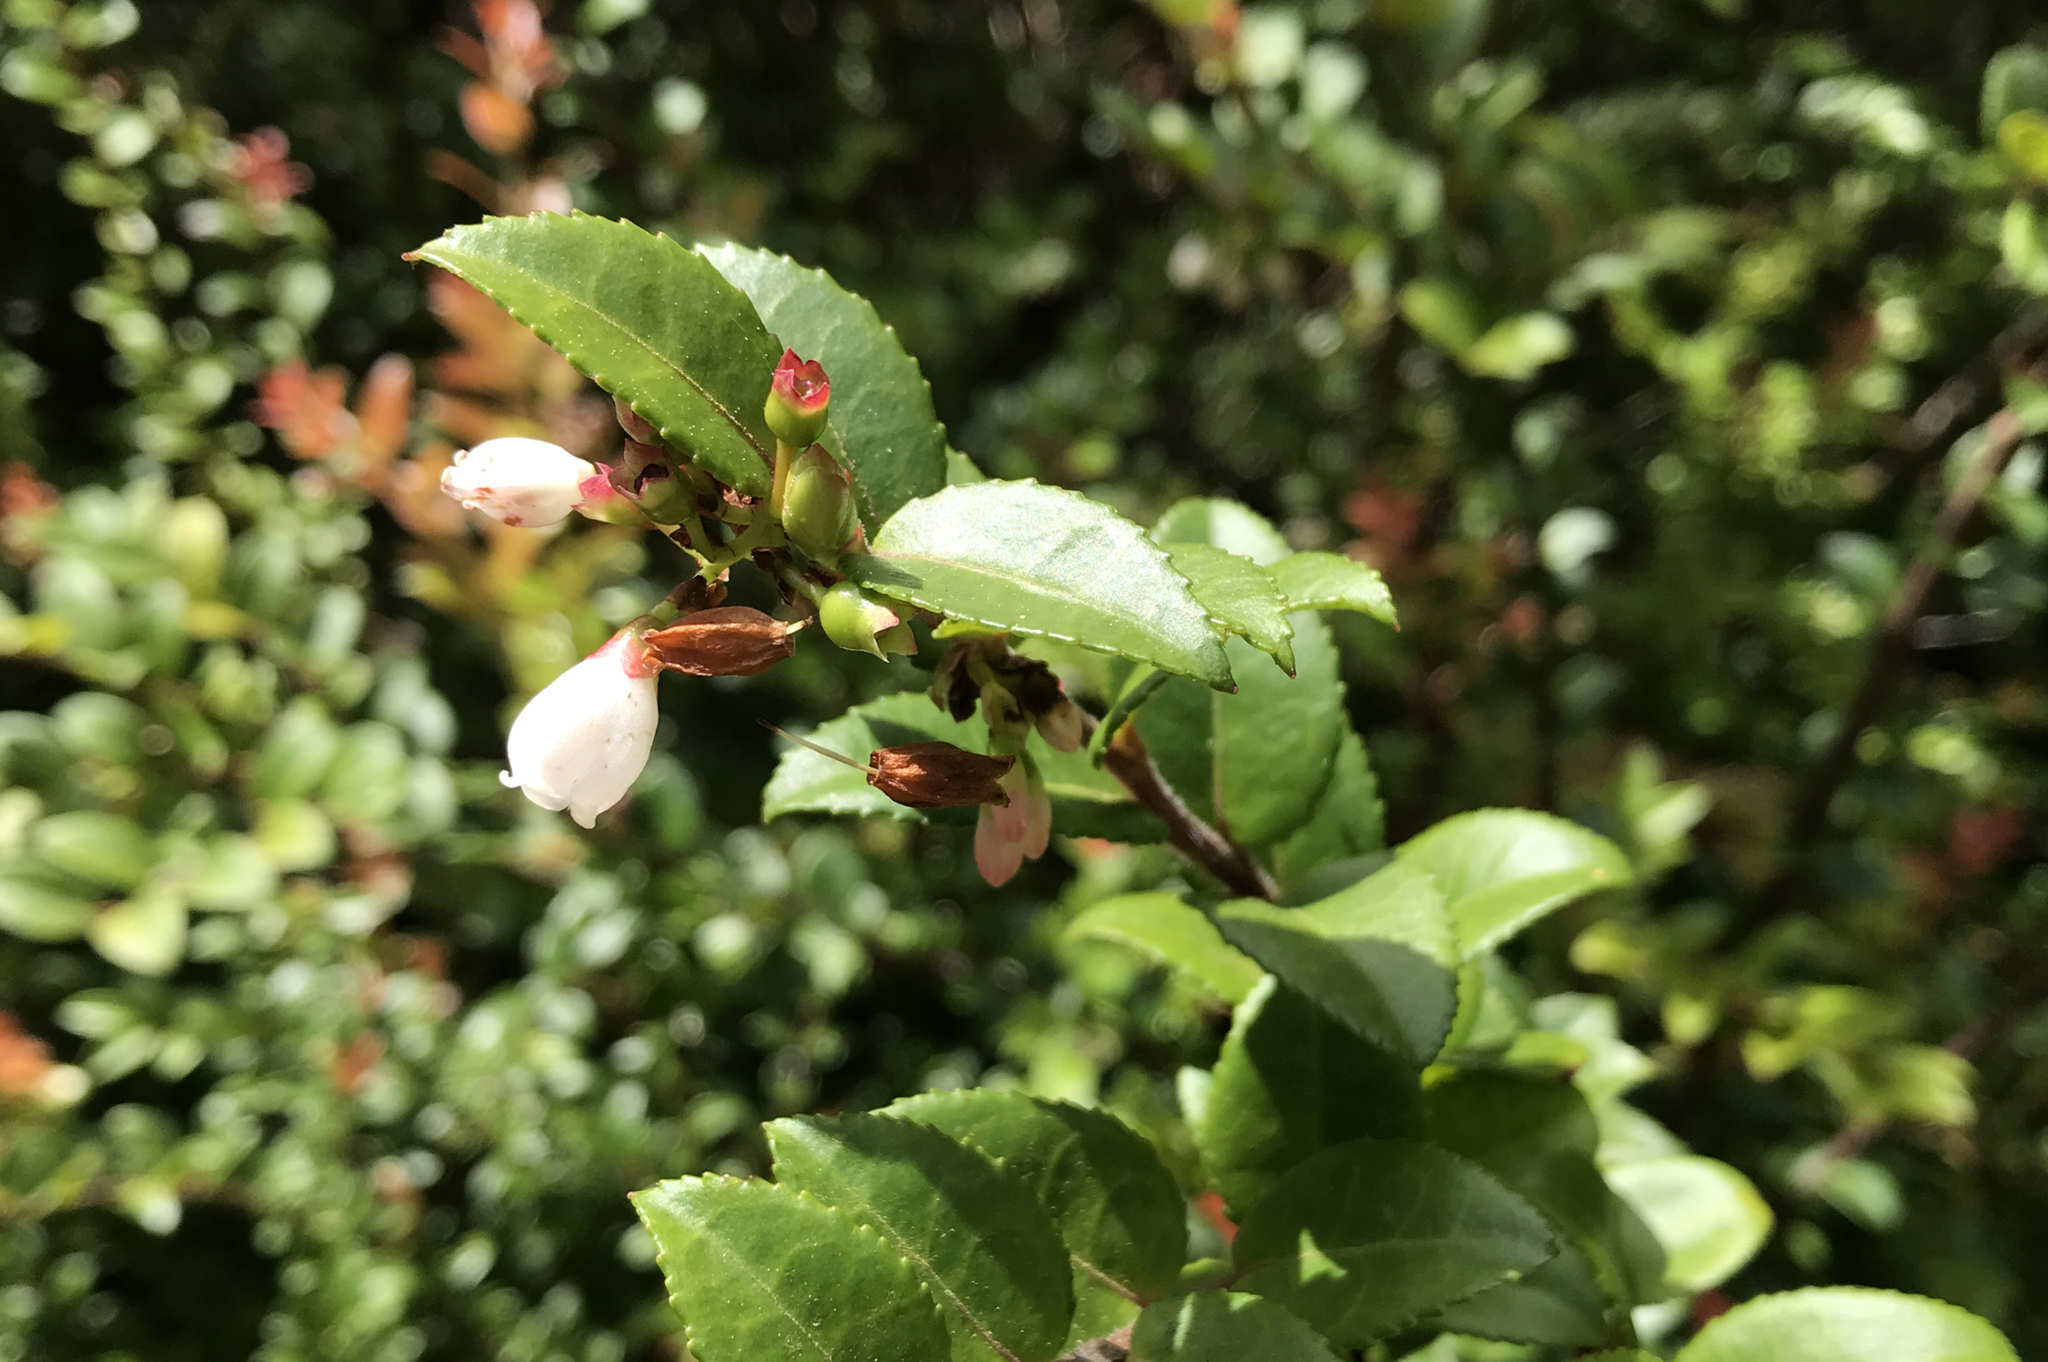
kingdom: Plantae
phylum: Tracheophyta
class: Magnoliopsida
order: Ericales
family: Ericaceae
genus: Vaccinium
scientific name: Vaccinium ovatum
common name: California-huckleberry
